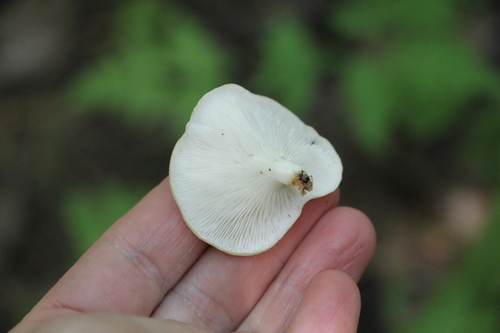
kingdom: Fungi
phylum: Basidiomycota
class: Agaricomycetes
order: Agaricales
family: Pleurotaceae
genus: Pleurotus
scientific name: Pleurotus pulmonarius
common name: Pale oyster
